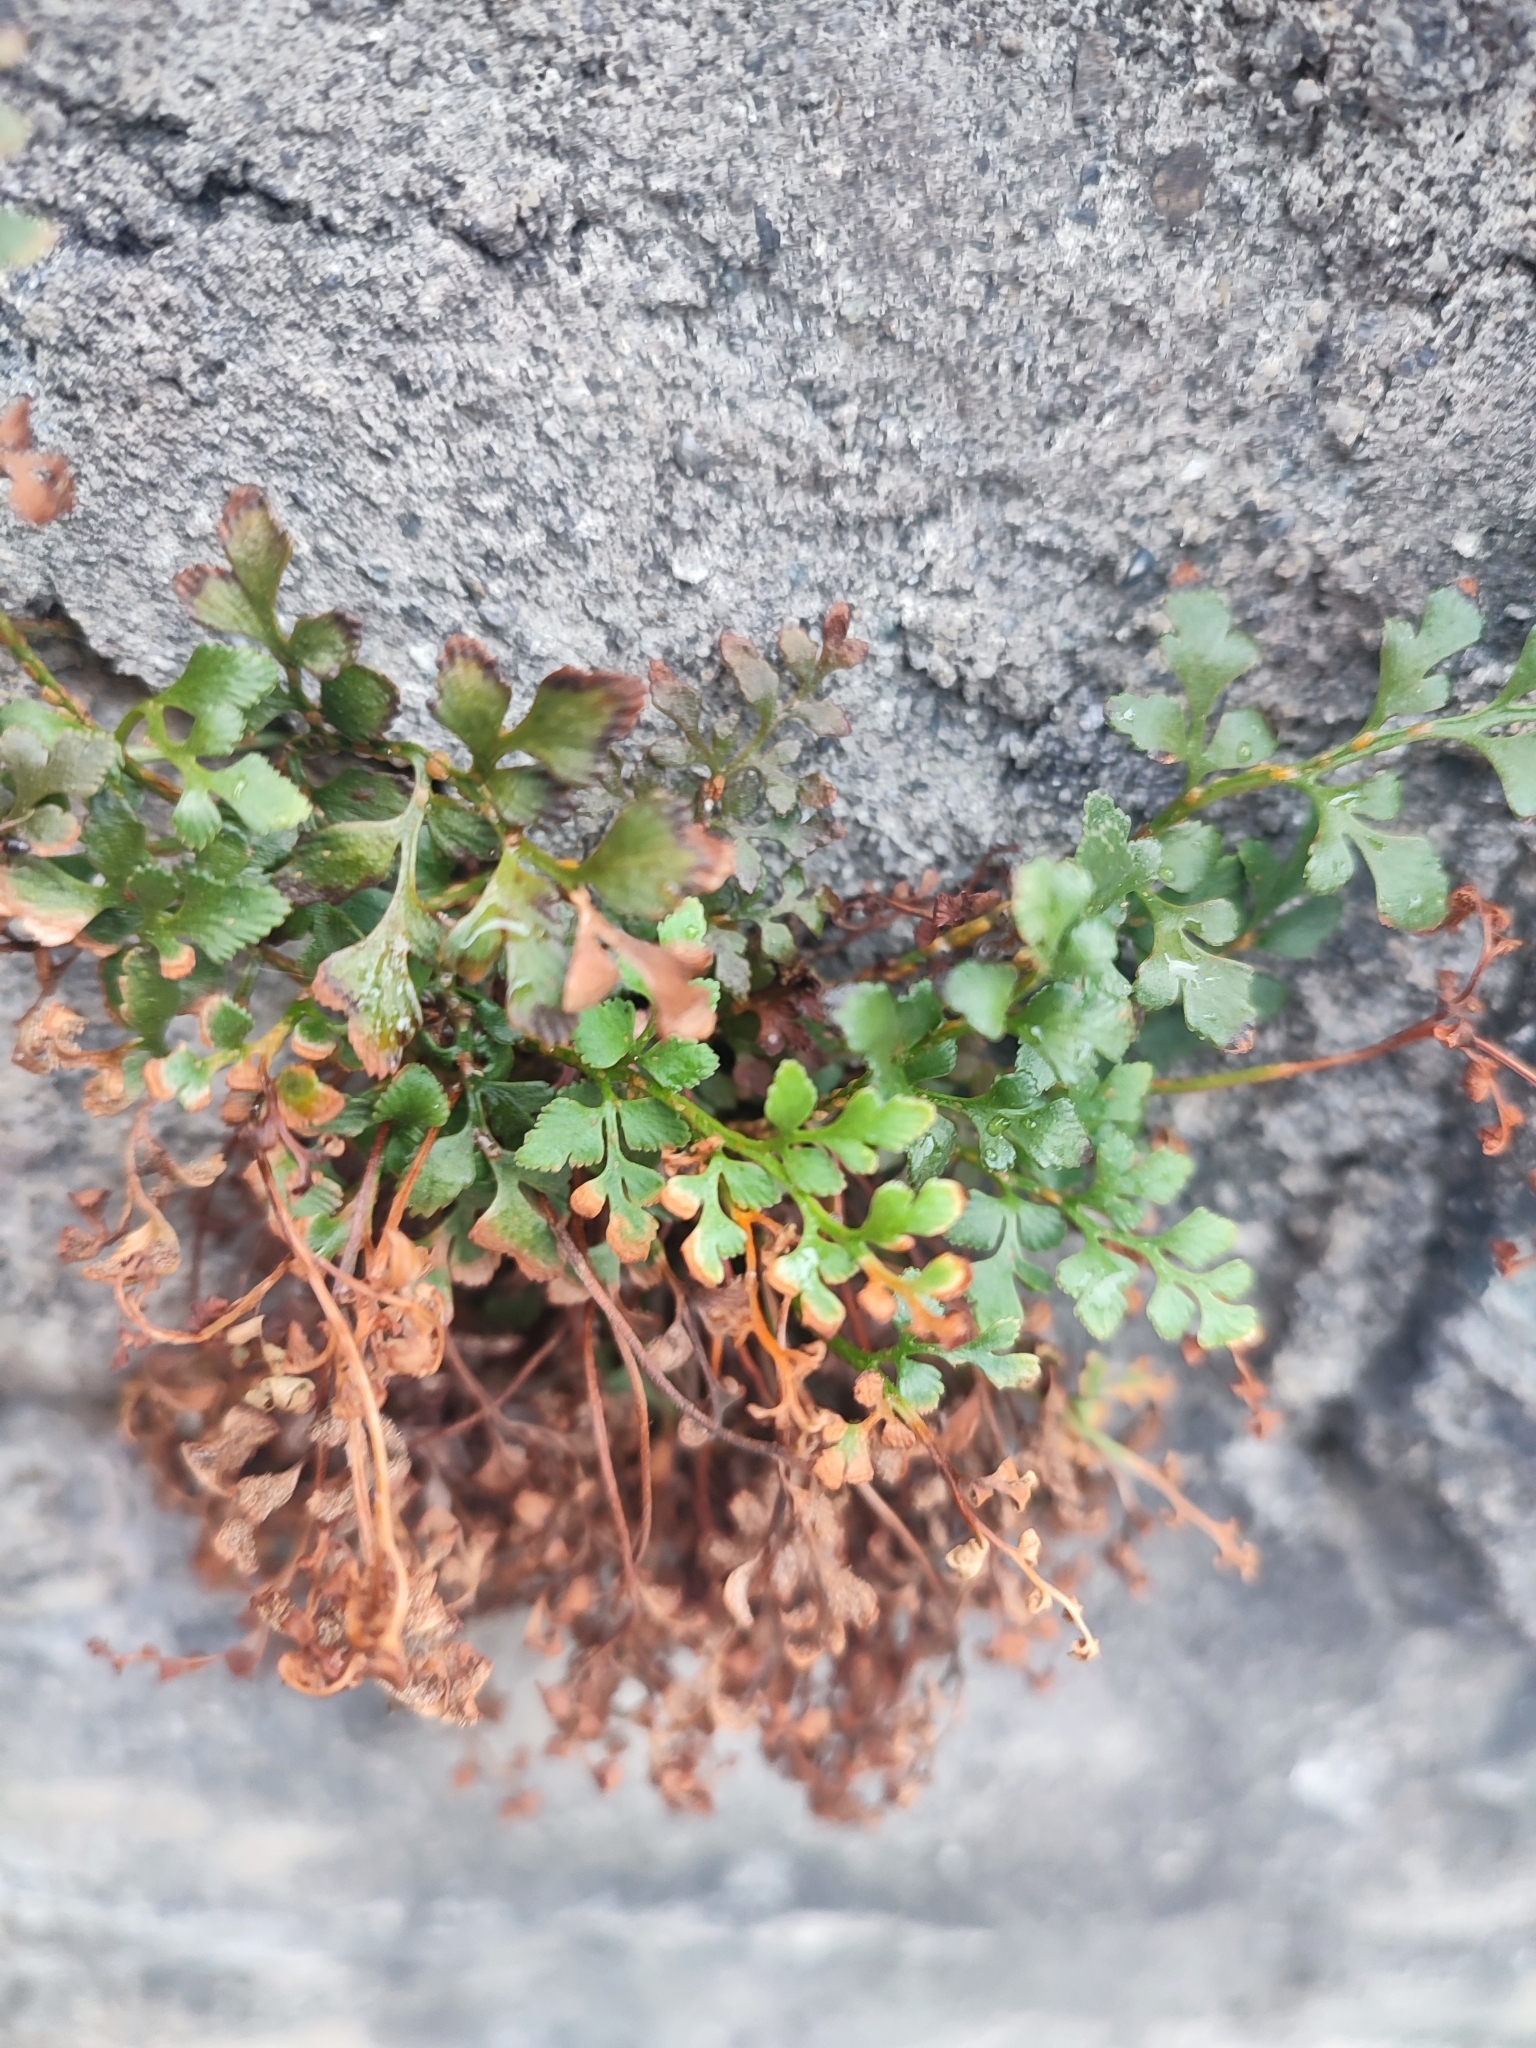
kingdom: Plantae
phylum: Tracheophyta
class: Polypodiopsida
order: Polypodiales
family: Aspleniaceae
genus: Asplenium
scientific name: Asplenium ruta-muraria
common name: Wall-rue
